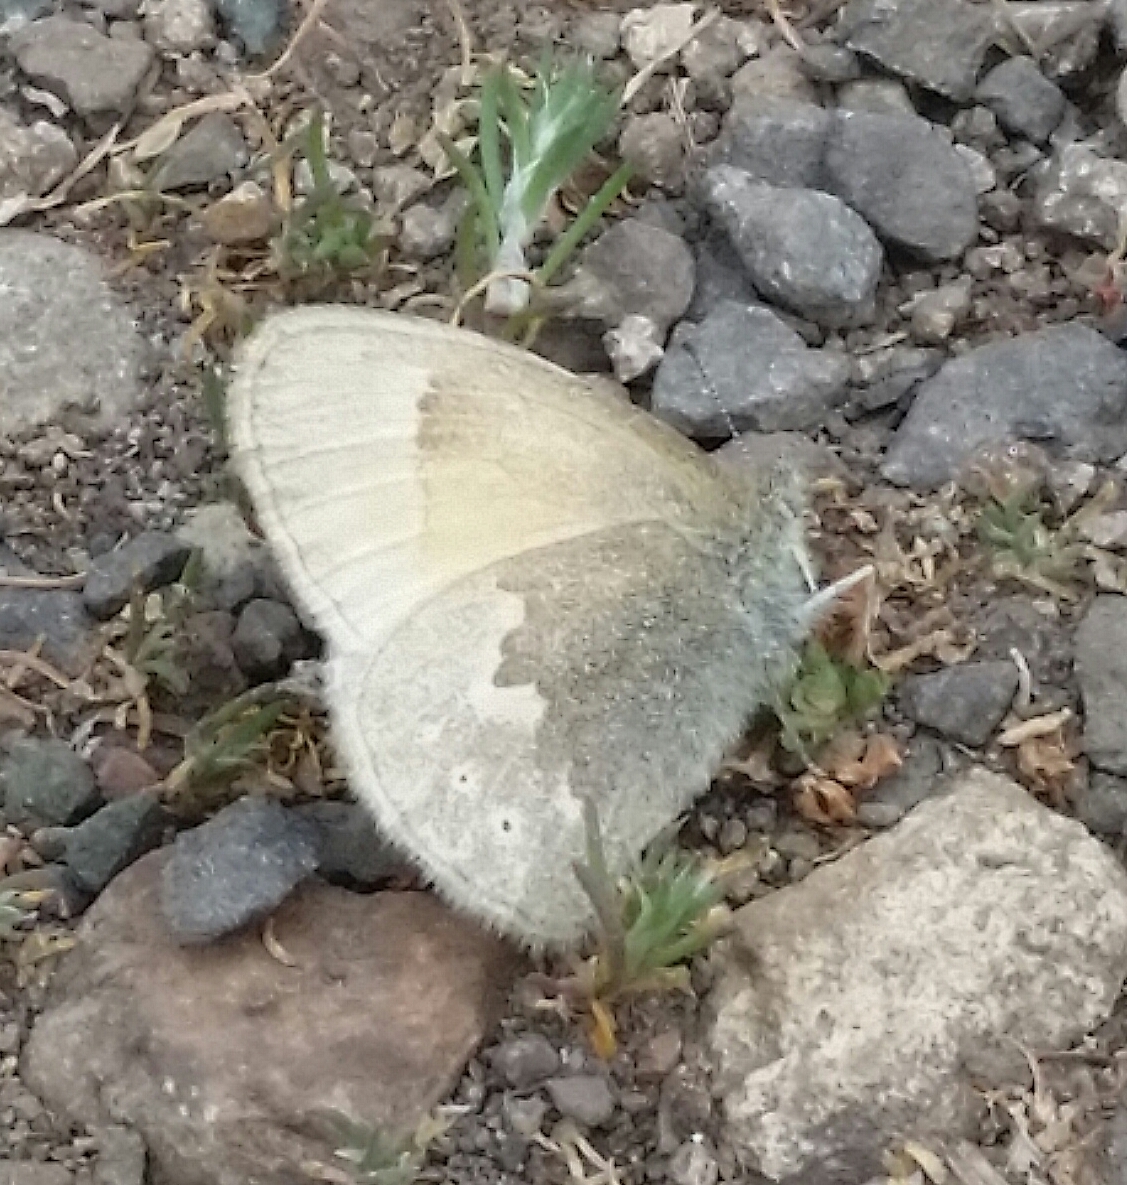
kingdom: Animalia
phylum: Arthropoda
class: Insecta
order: Lepidoptera
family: Nymphalidae
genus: Coenonympha
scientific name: Coenonympha california
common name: Common ringlet
